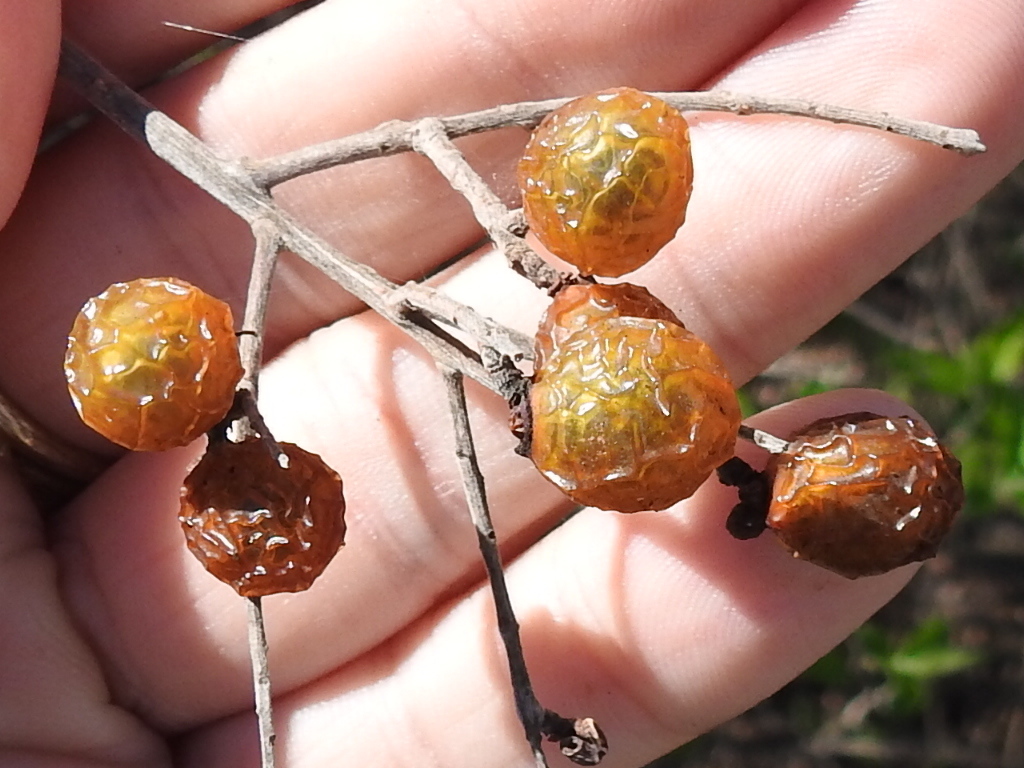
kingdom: Plantae
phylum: Tracheophyta
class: Magnoliopsida
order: Sapindales
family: Sapindaceae
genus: Sapindus
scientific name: Sapindus drummondii
